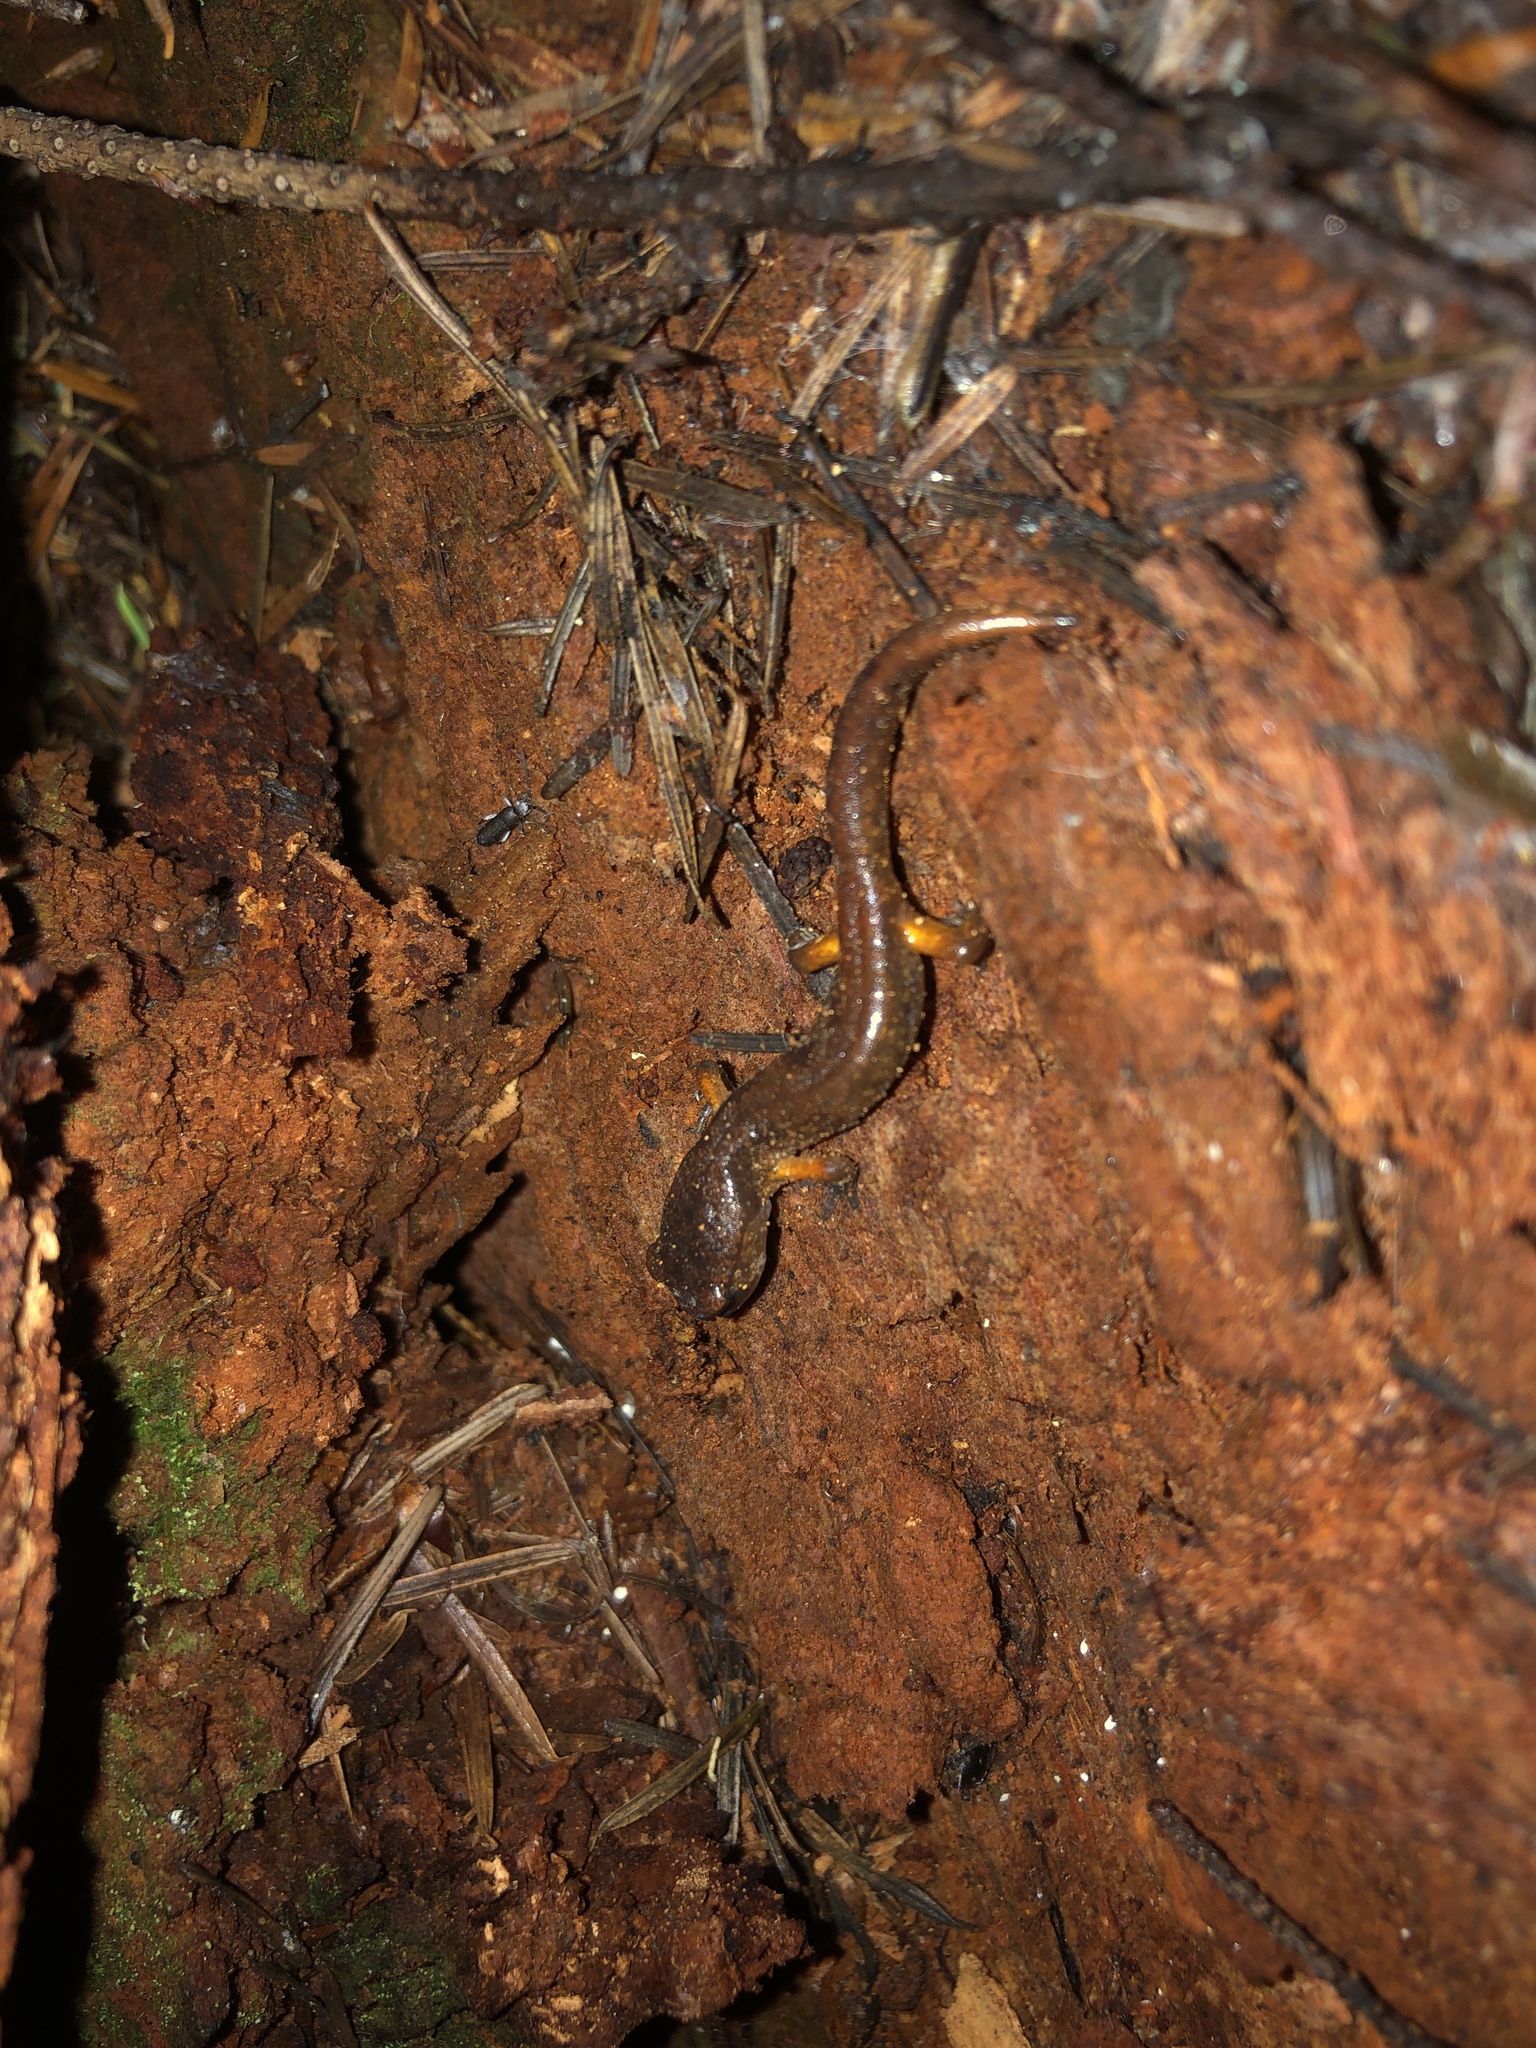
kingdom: Animalia
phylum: Chordata
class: Amphibia
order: Caudata
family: Plethodontidae
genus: Ensatina
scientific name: Ensatina eschscholtzii
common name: Ensatina
